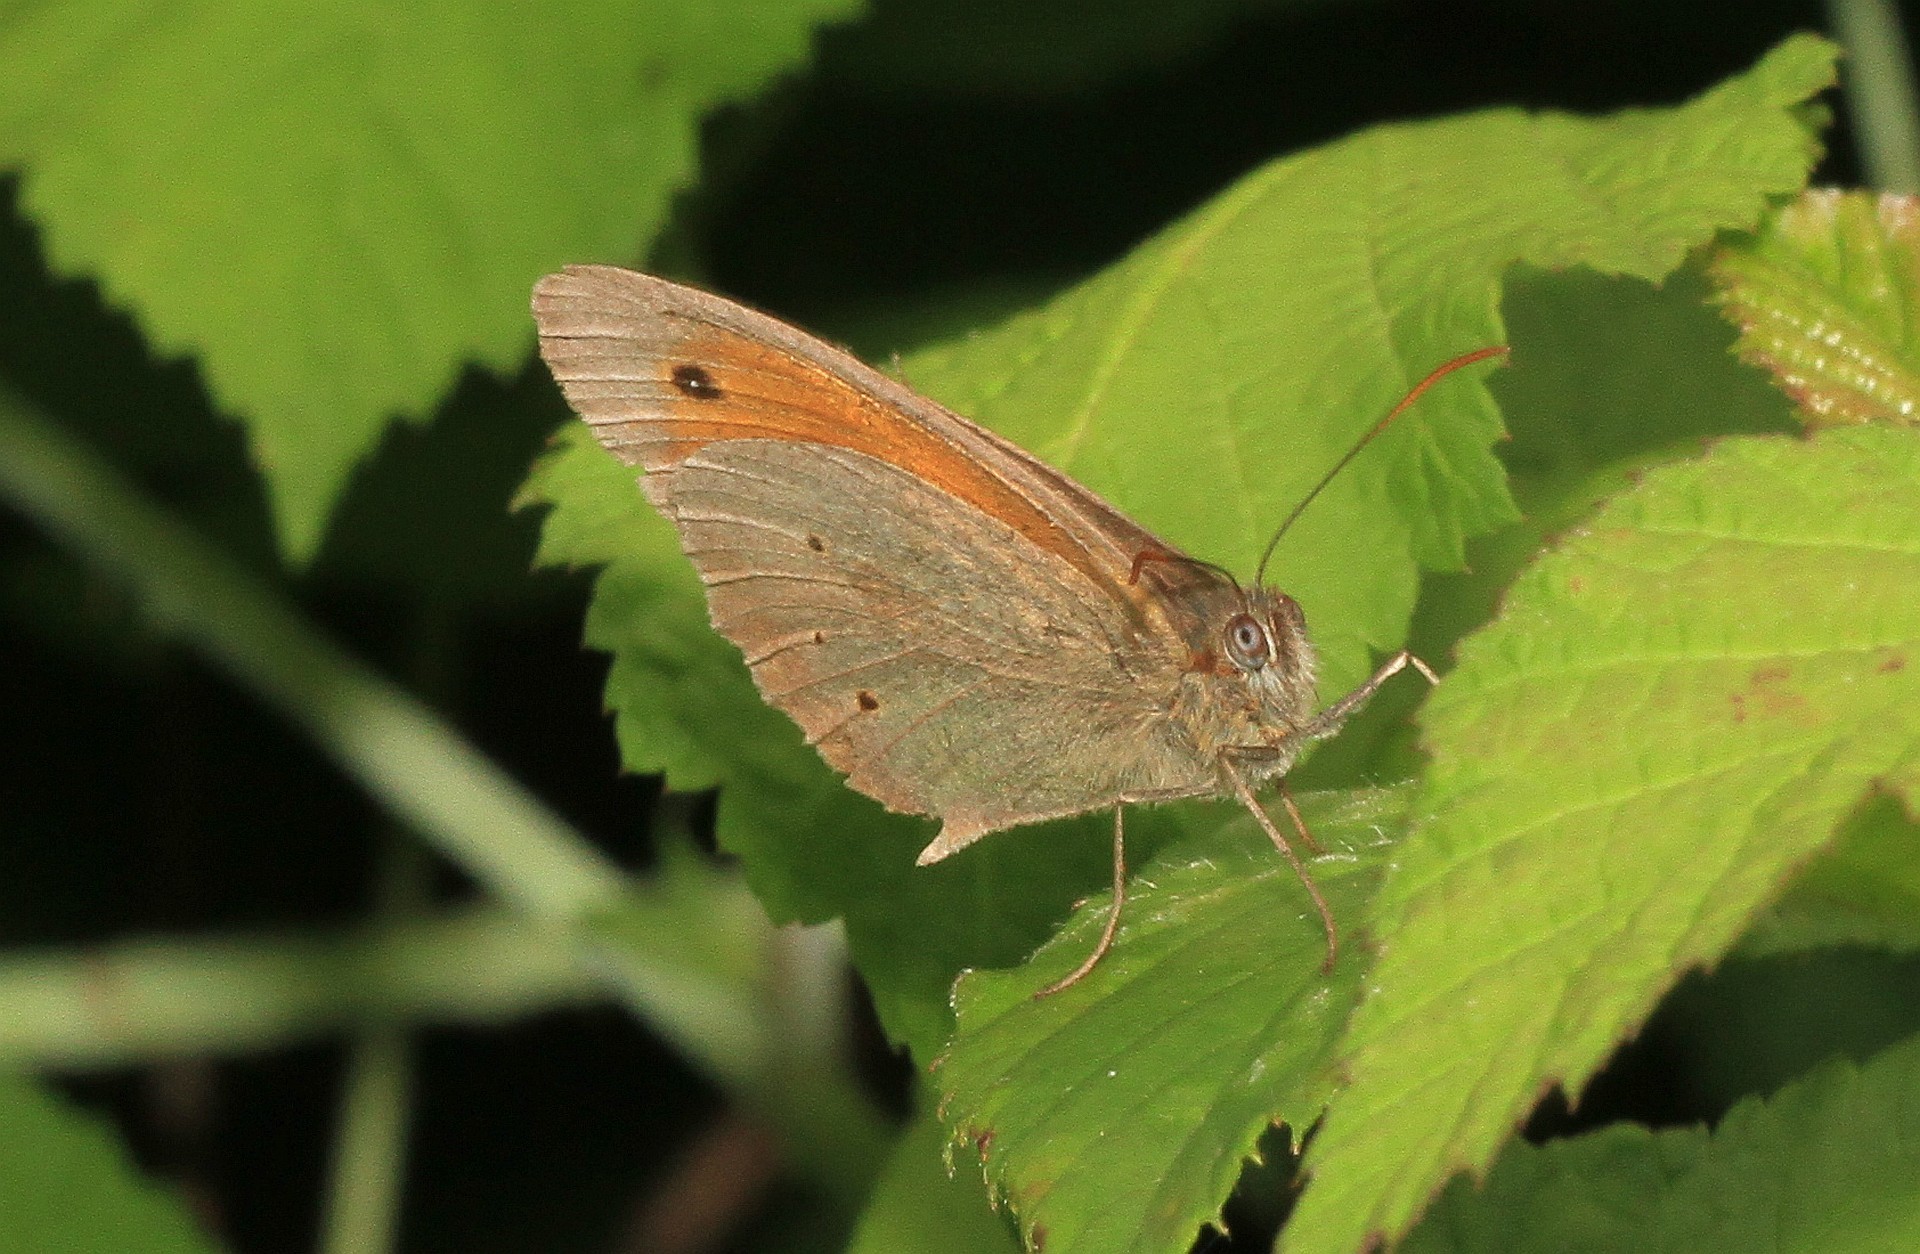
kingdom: Animalia
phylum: Arthropoda
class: Insecta
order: Lepidoptera
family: Nymphalidae
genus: Maniola
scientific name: Maniola jurtina
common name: Meadow brown
